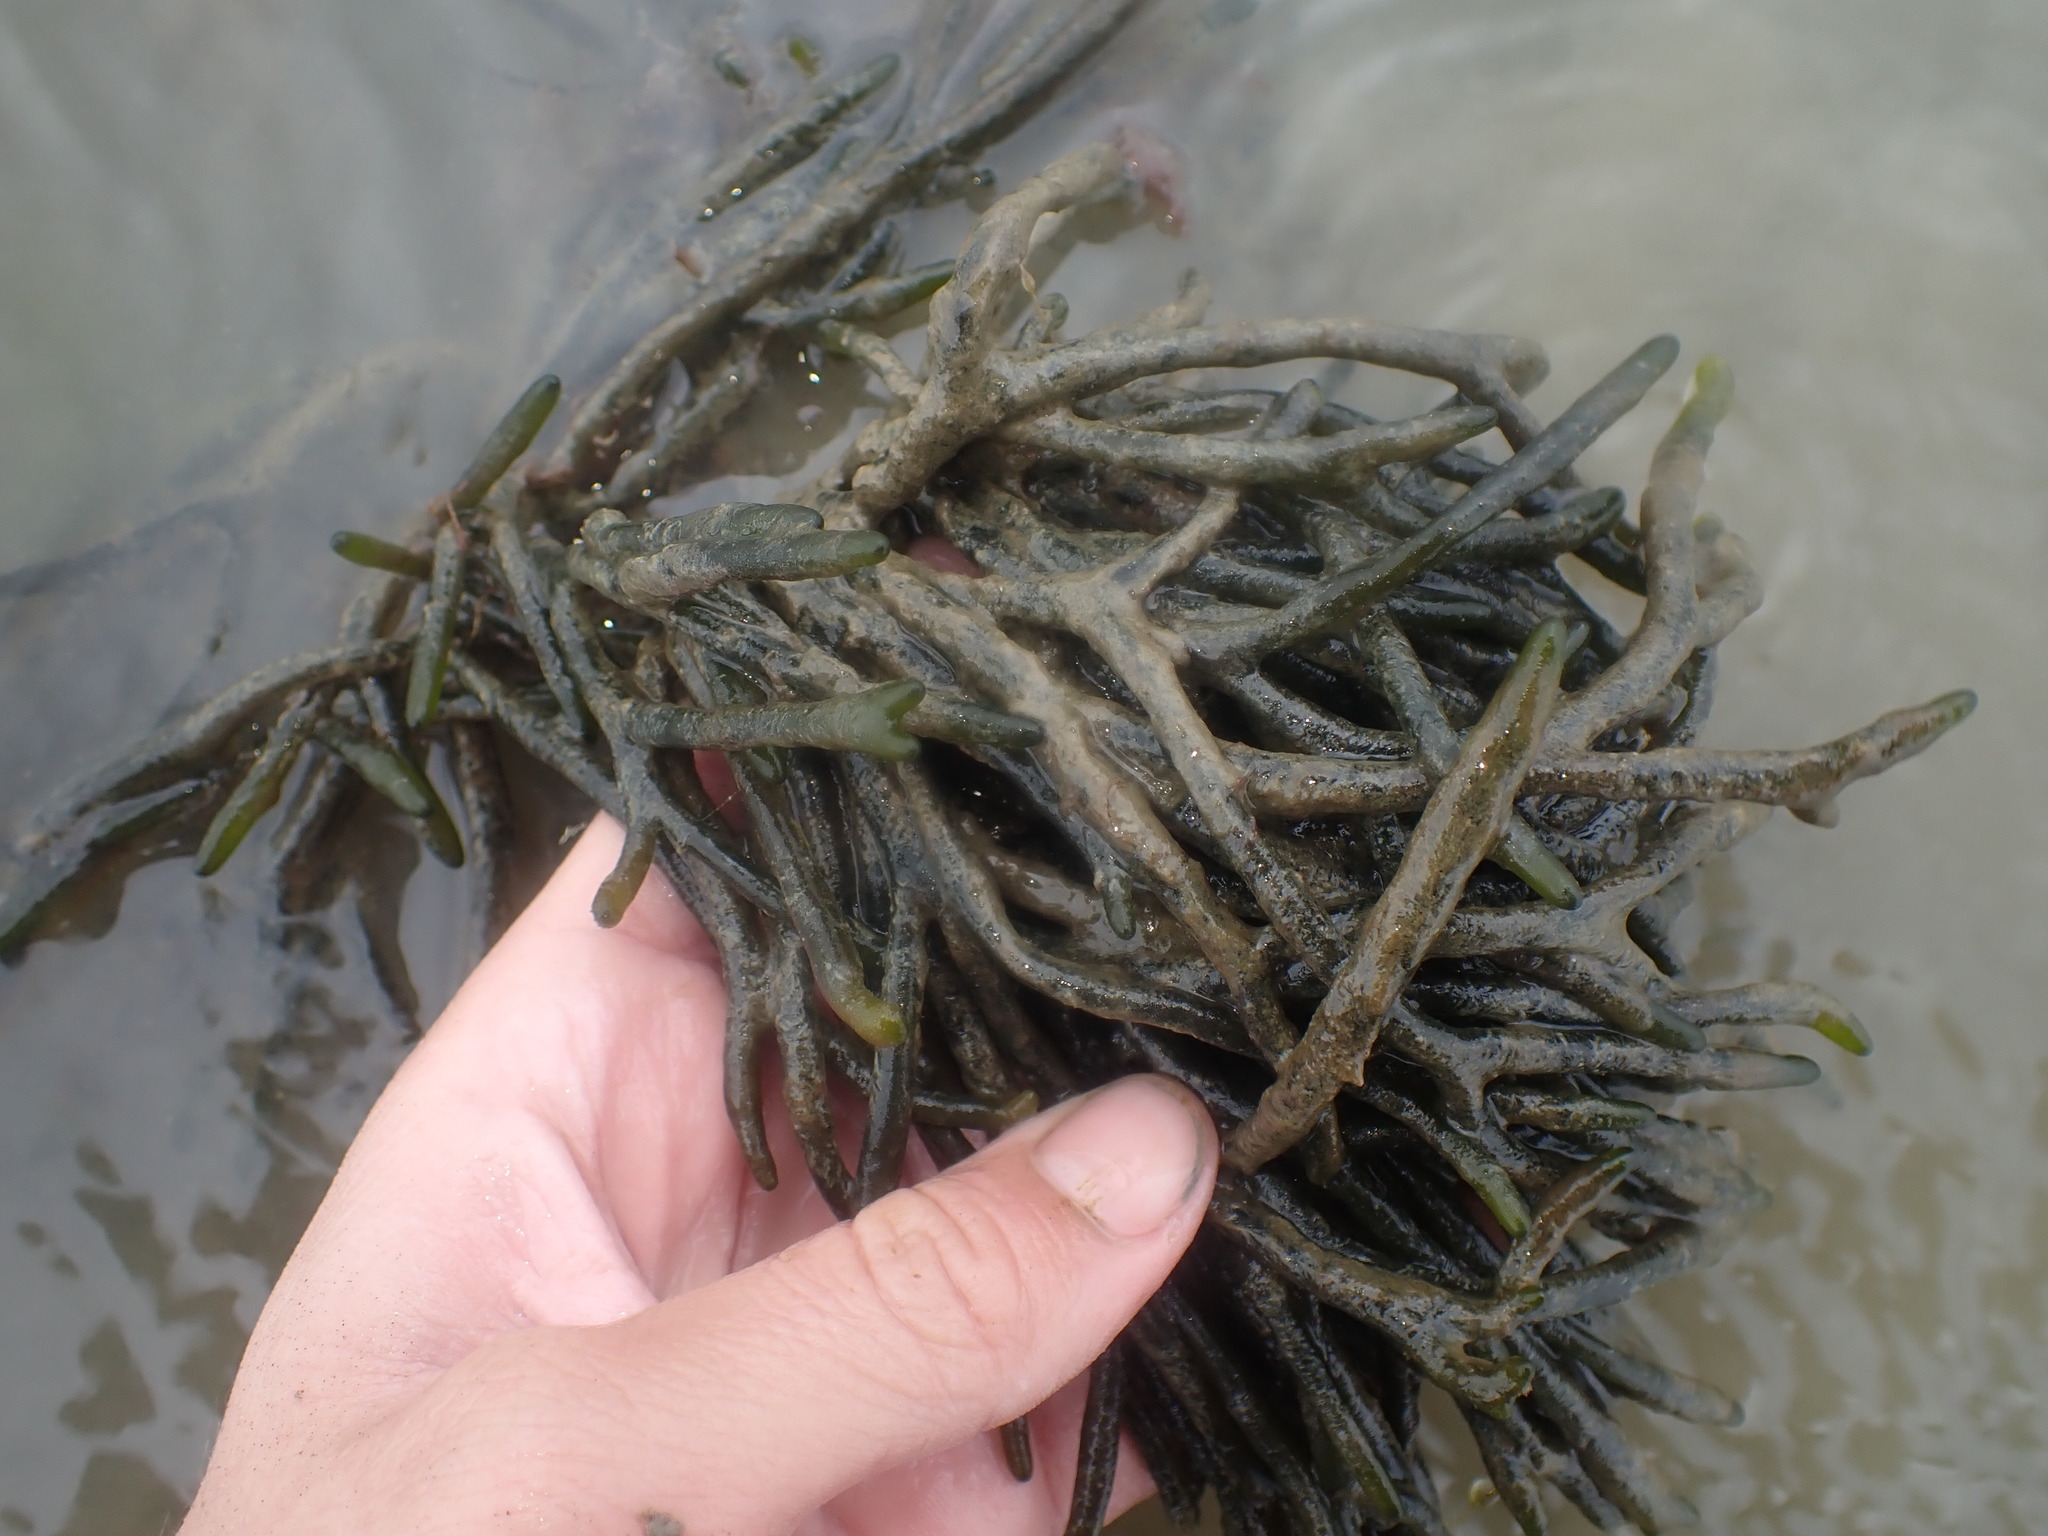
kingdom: Plantae
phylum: Chlorophyta
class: Ulvophyceae
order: Bryopsidales
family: Codiaceae
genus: Codium
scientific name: Codium fragile
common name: Dead man's fingers
